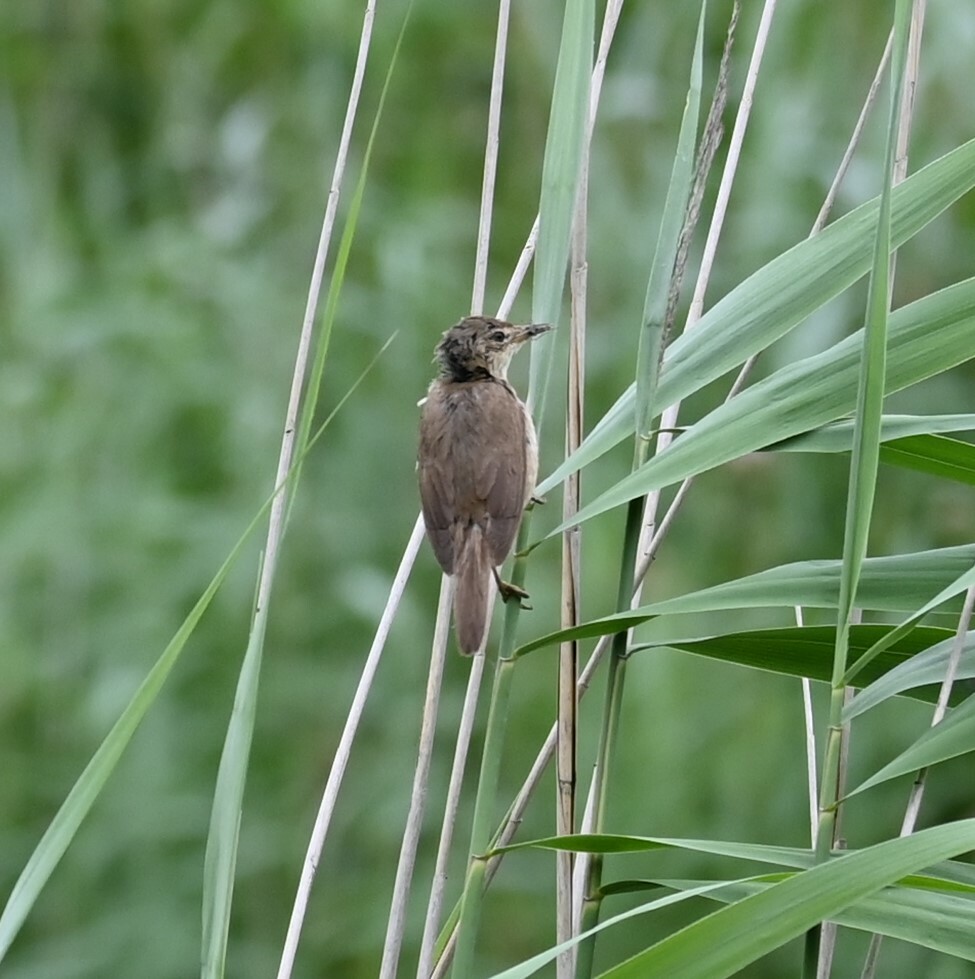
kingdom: Animalia
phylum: Chordata
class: Aves
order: Passeriformes
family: Acrocephalidae
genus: Acrocephalus
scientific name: Acrocephalus scirpaceus
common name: Eurasian reed warbler
